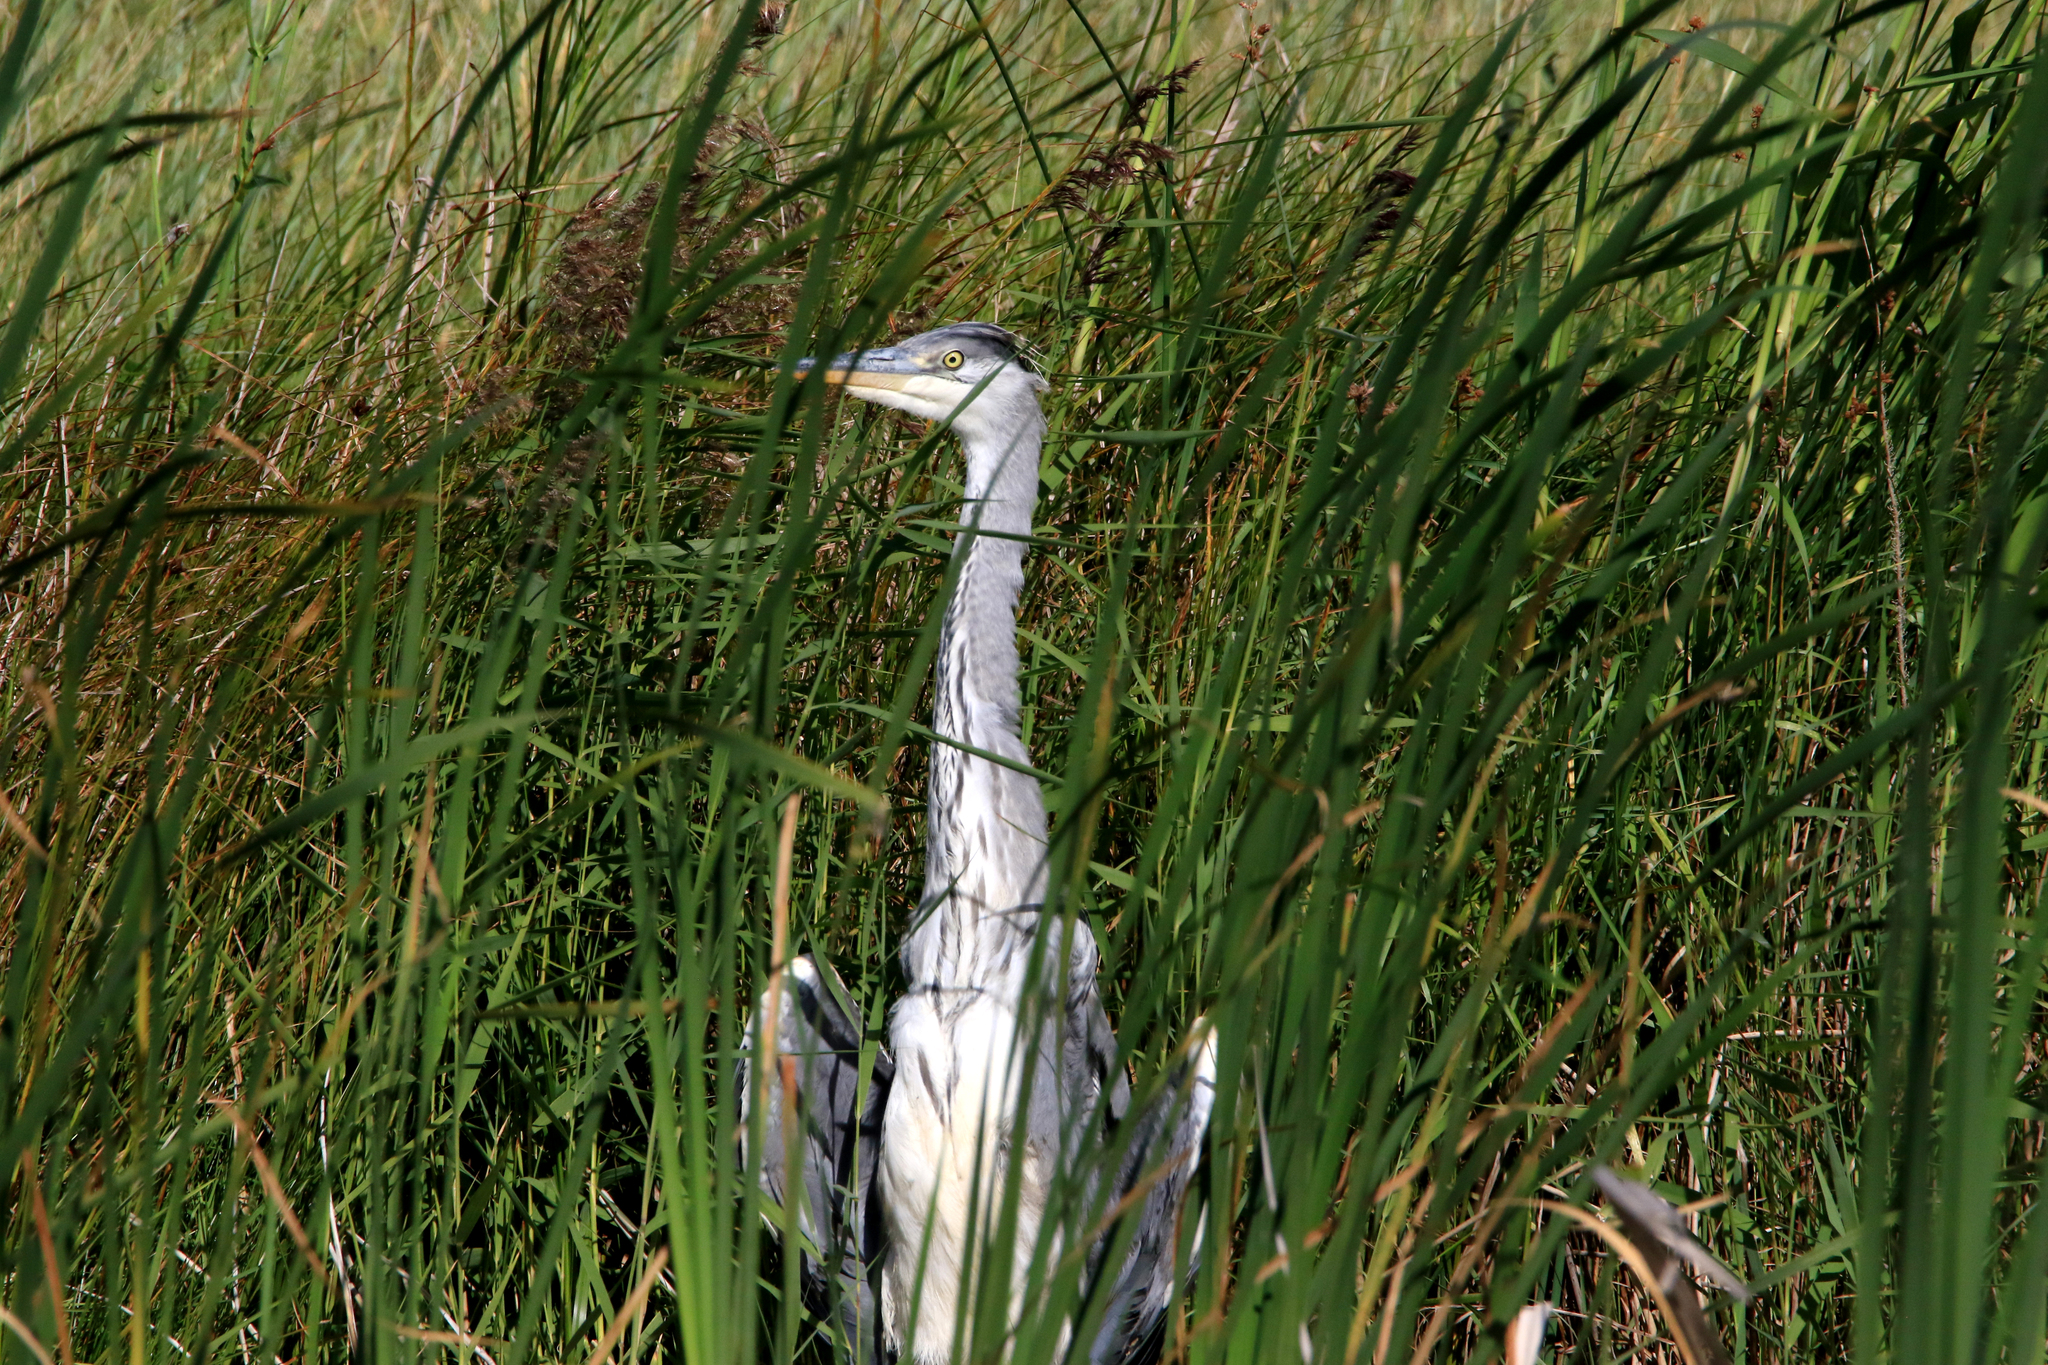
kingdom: Animalia
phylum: Chordata
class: Aves
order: Pelecaniformes
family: Ardeidae
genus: Ardea
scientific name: Ardea cinerea
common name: Grey heron
